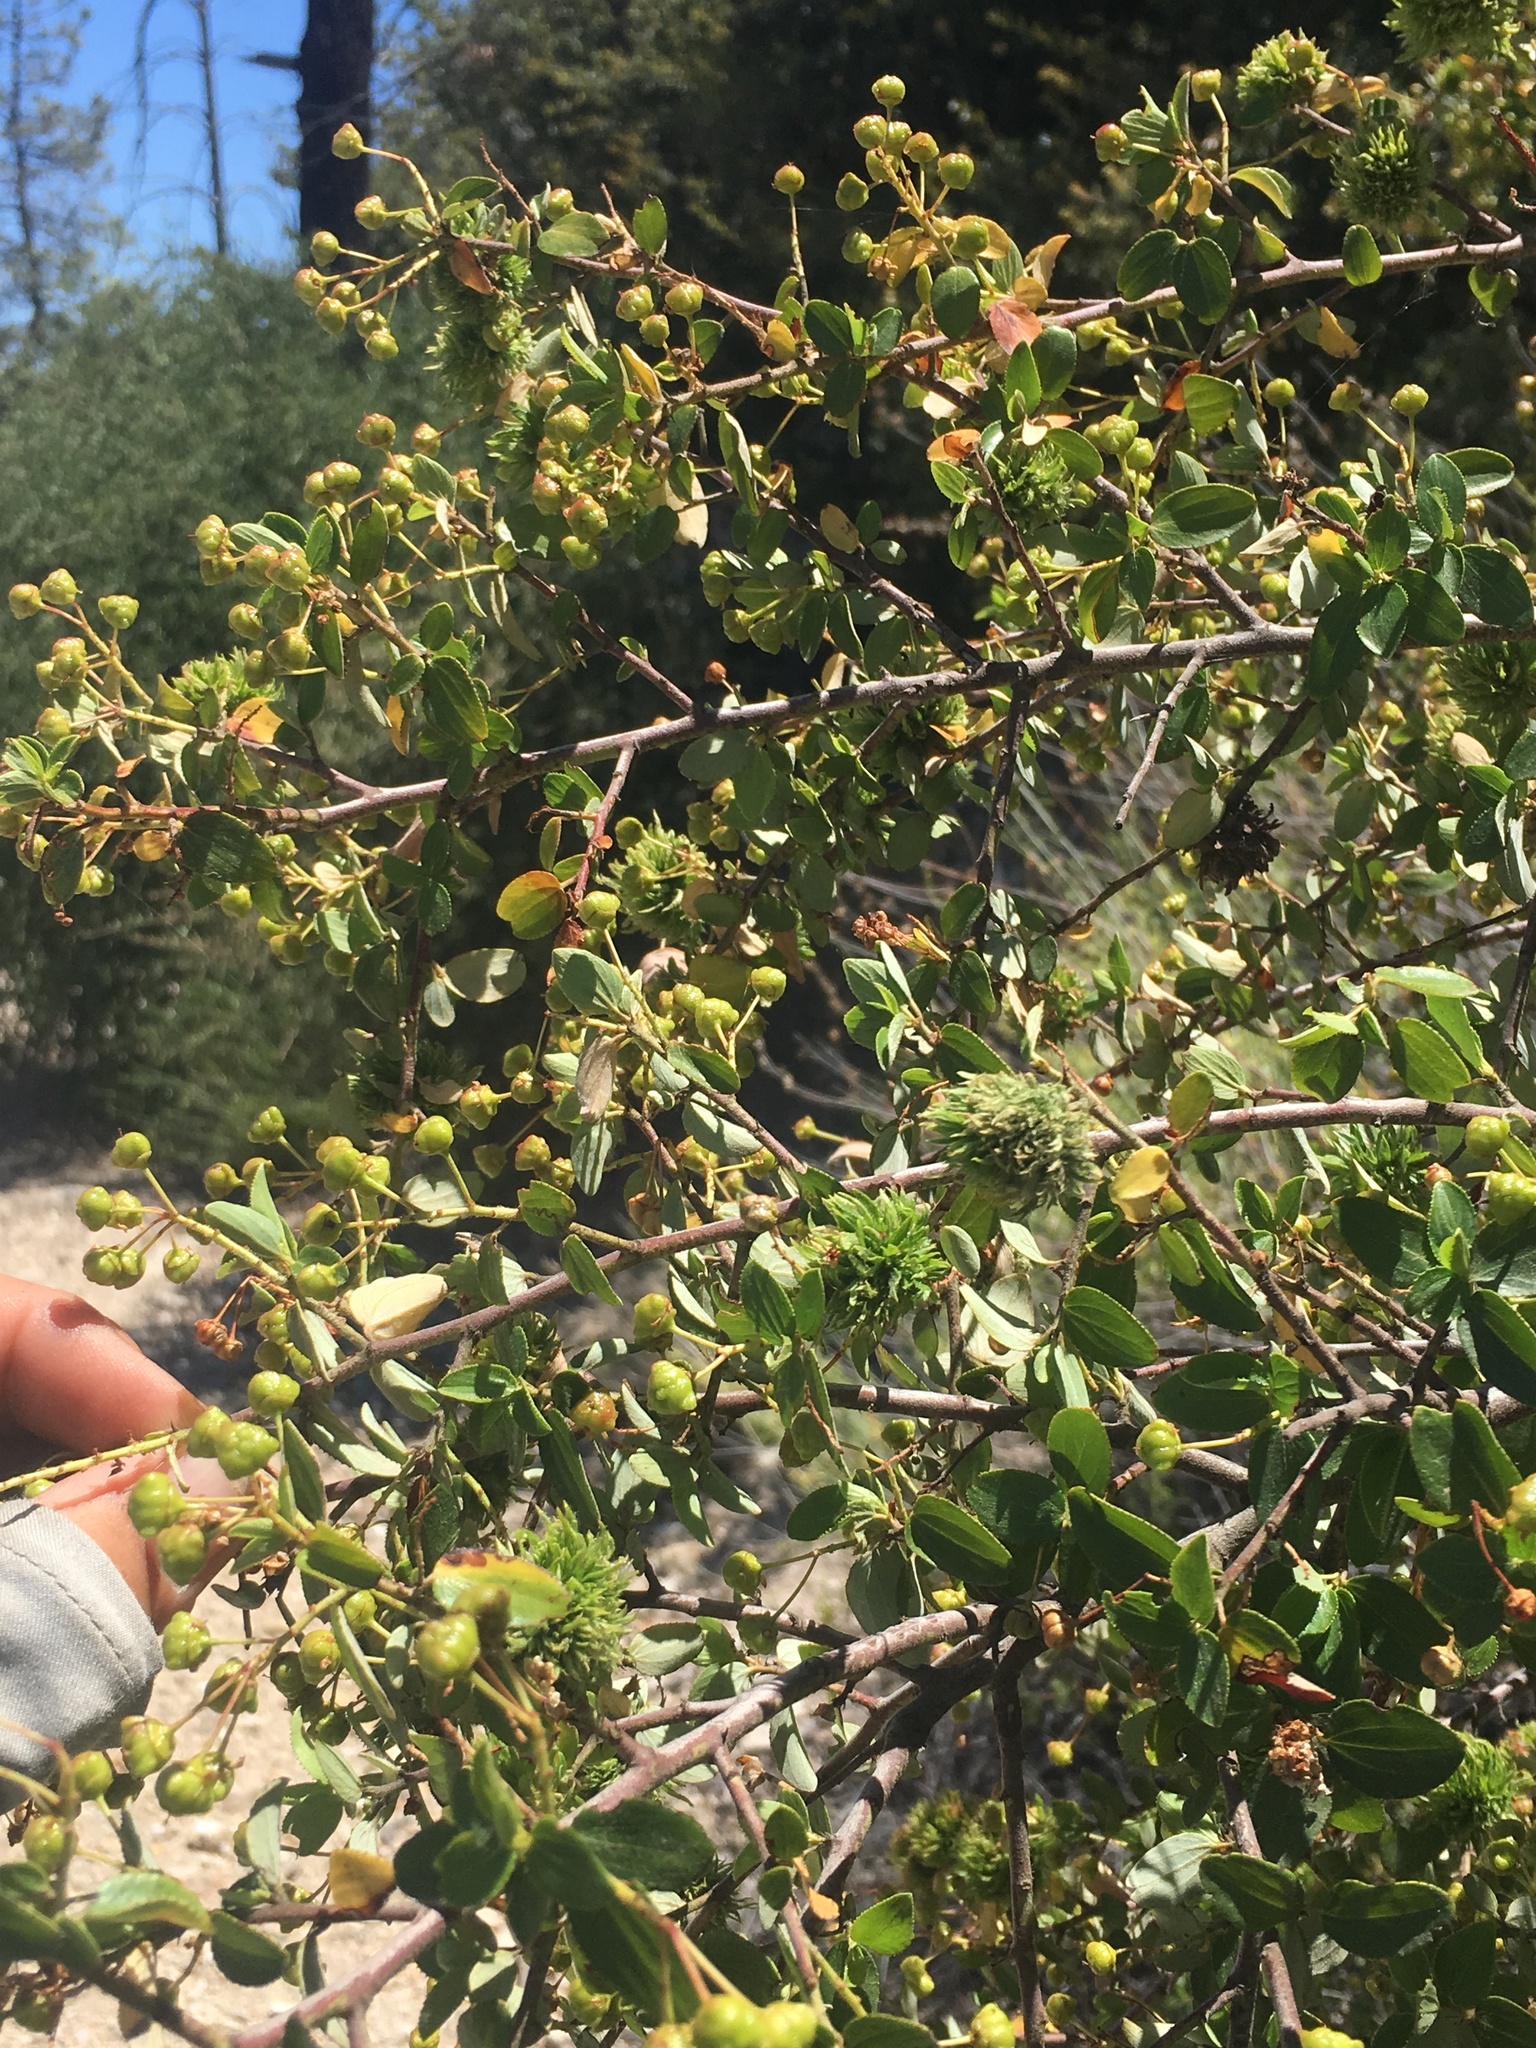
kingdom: Animalia
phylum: Arthropoda
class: Insecta
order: Diptera
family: Cecidomyiidae
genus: Asphondylia
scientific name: Asphondylia ceanothi
